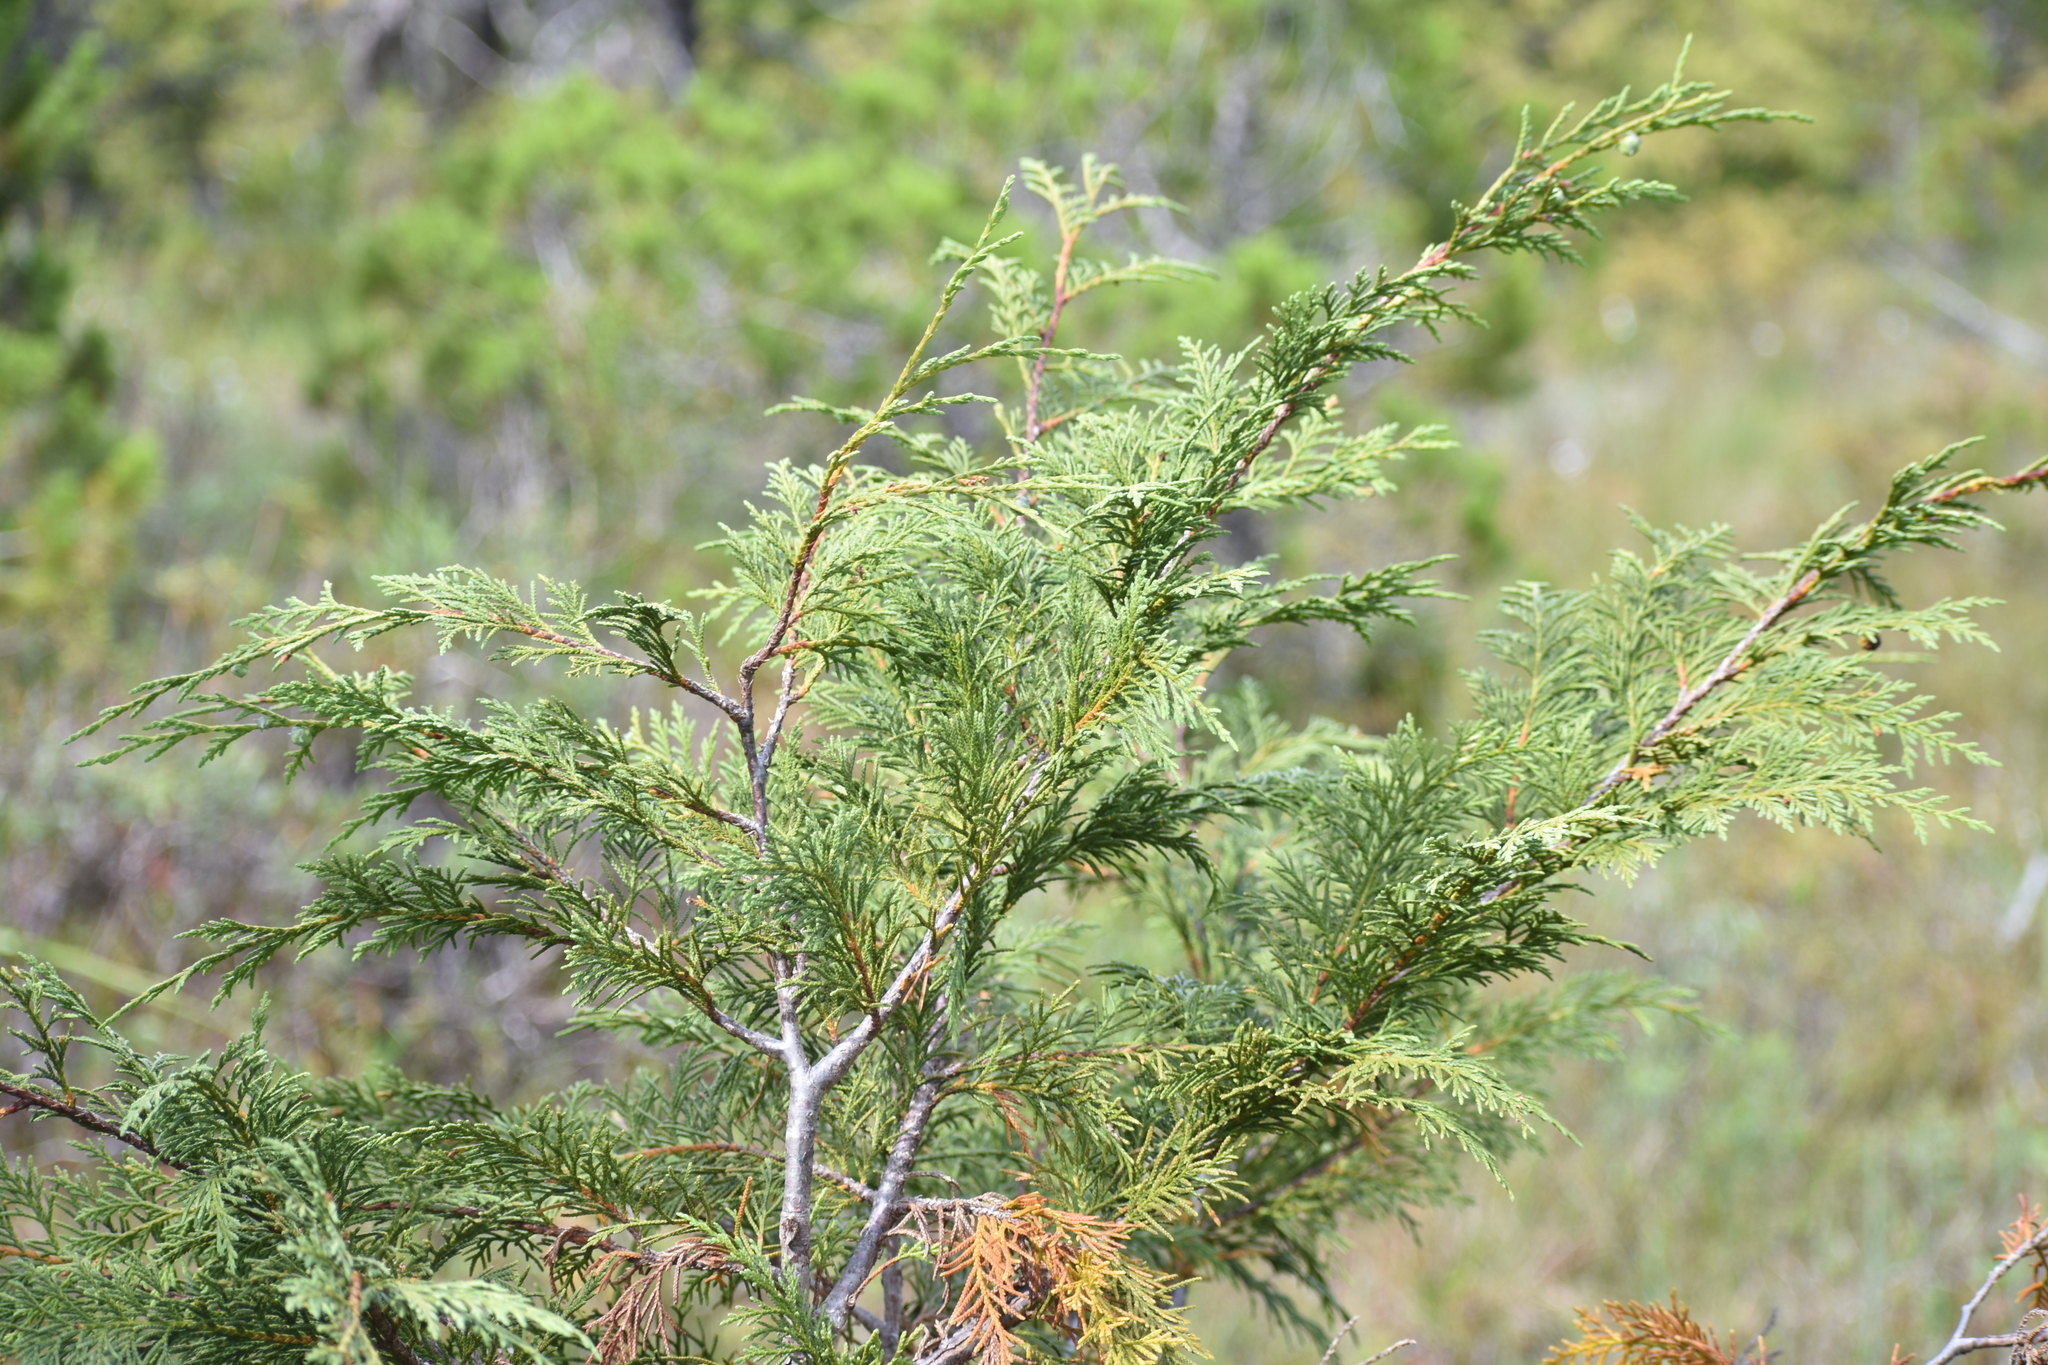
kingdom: Plantae
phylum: Tracheophyta
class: Pinopsida
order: Pinales
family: Cupressaceae
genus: Xanthocyparis
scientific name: Xanthocyparis nootkatensis
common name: Nootka cypress
